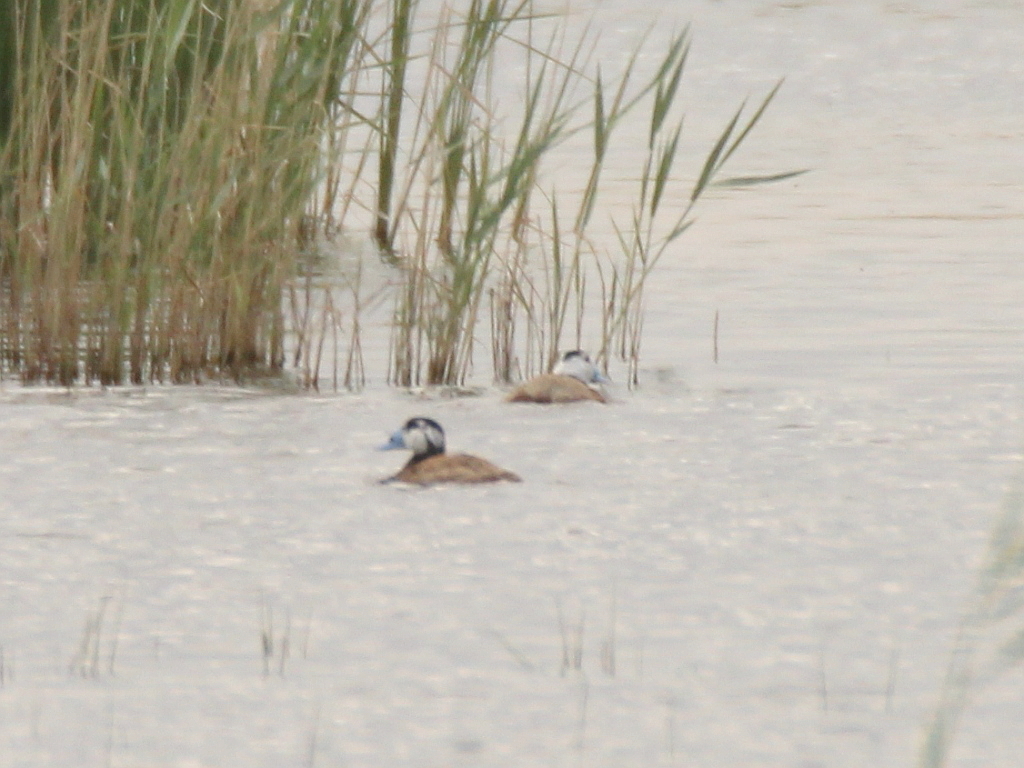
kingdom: Animalia
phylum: Chordata
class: Aves
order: Anseriformes
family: Anatidae
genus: Oxyura
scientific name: Oxyura leucocephala
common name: White-headed duck
